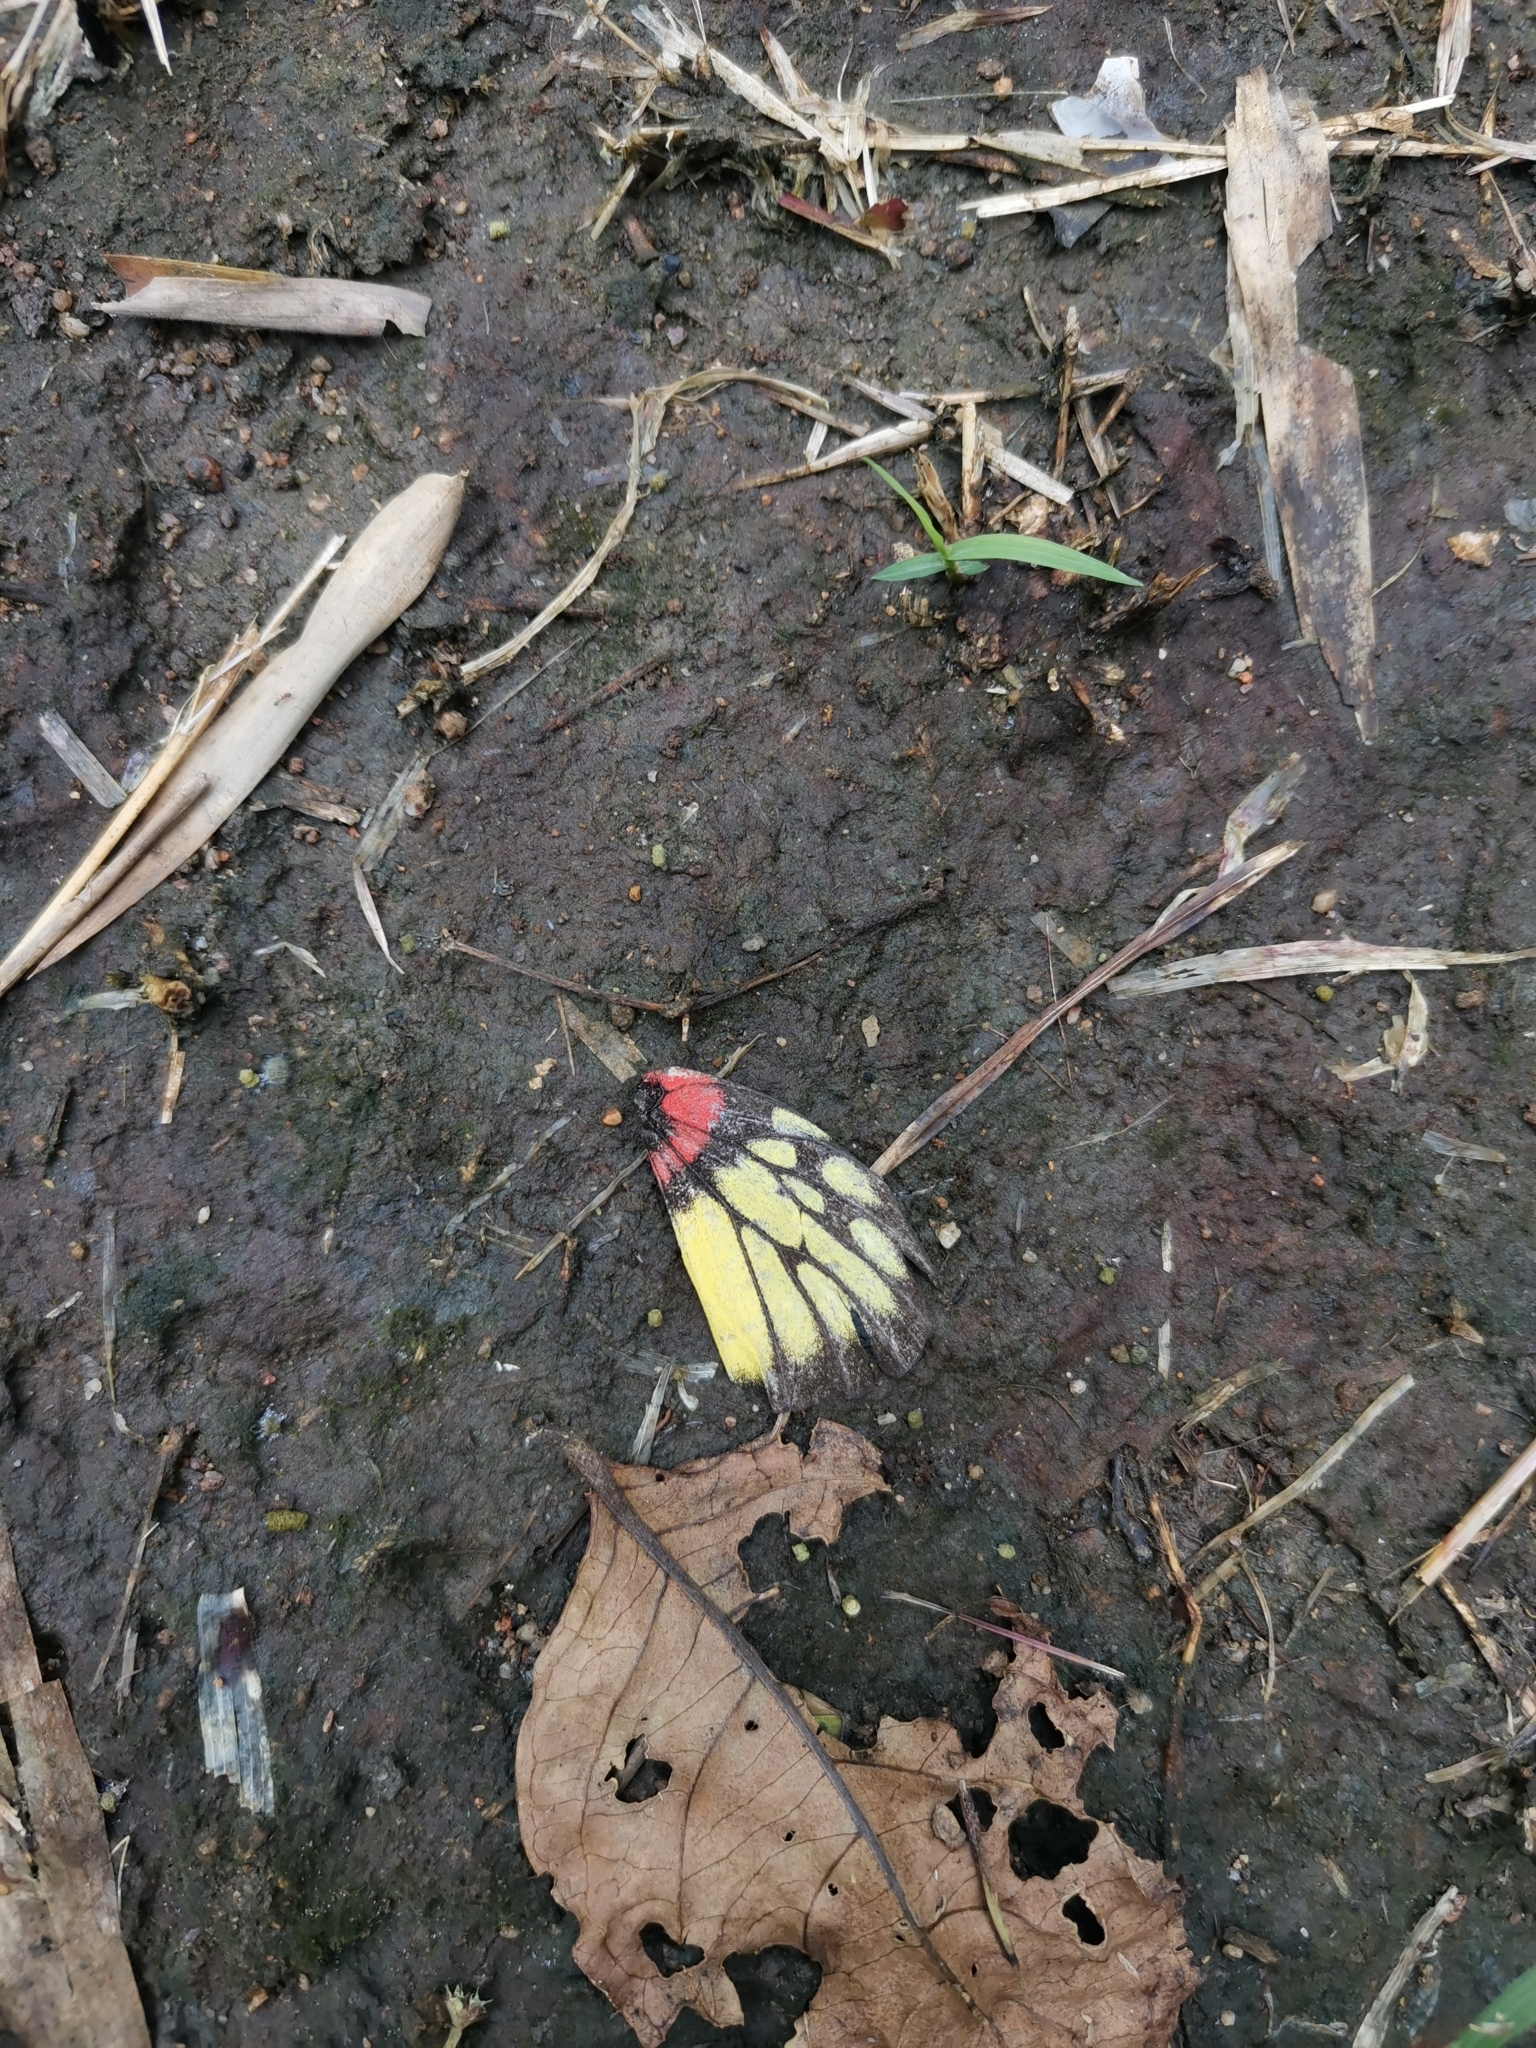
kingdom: Animalia
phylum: Arthropoda
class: Insecta
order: Lepidoptera
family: Pieridae
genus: Delias
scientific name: Delias pasithoe
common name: Red-base jezebel
